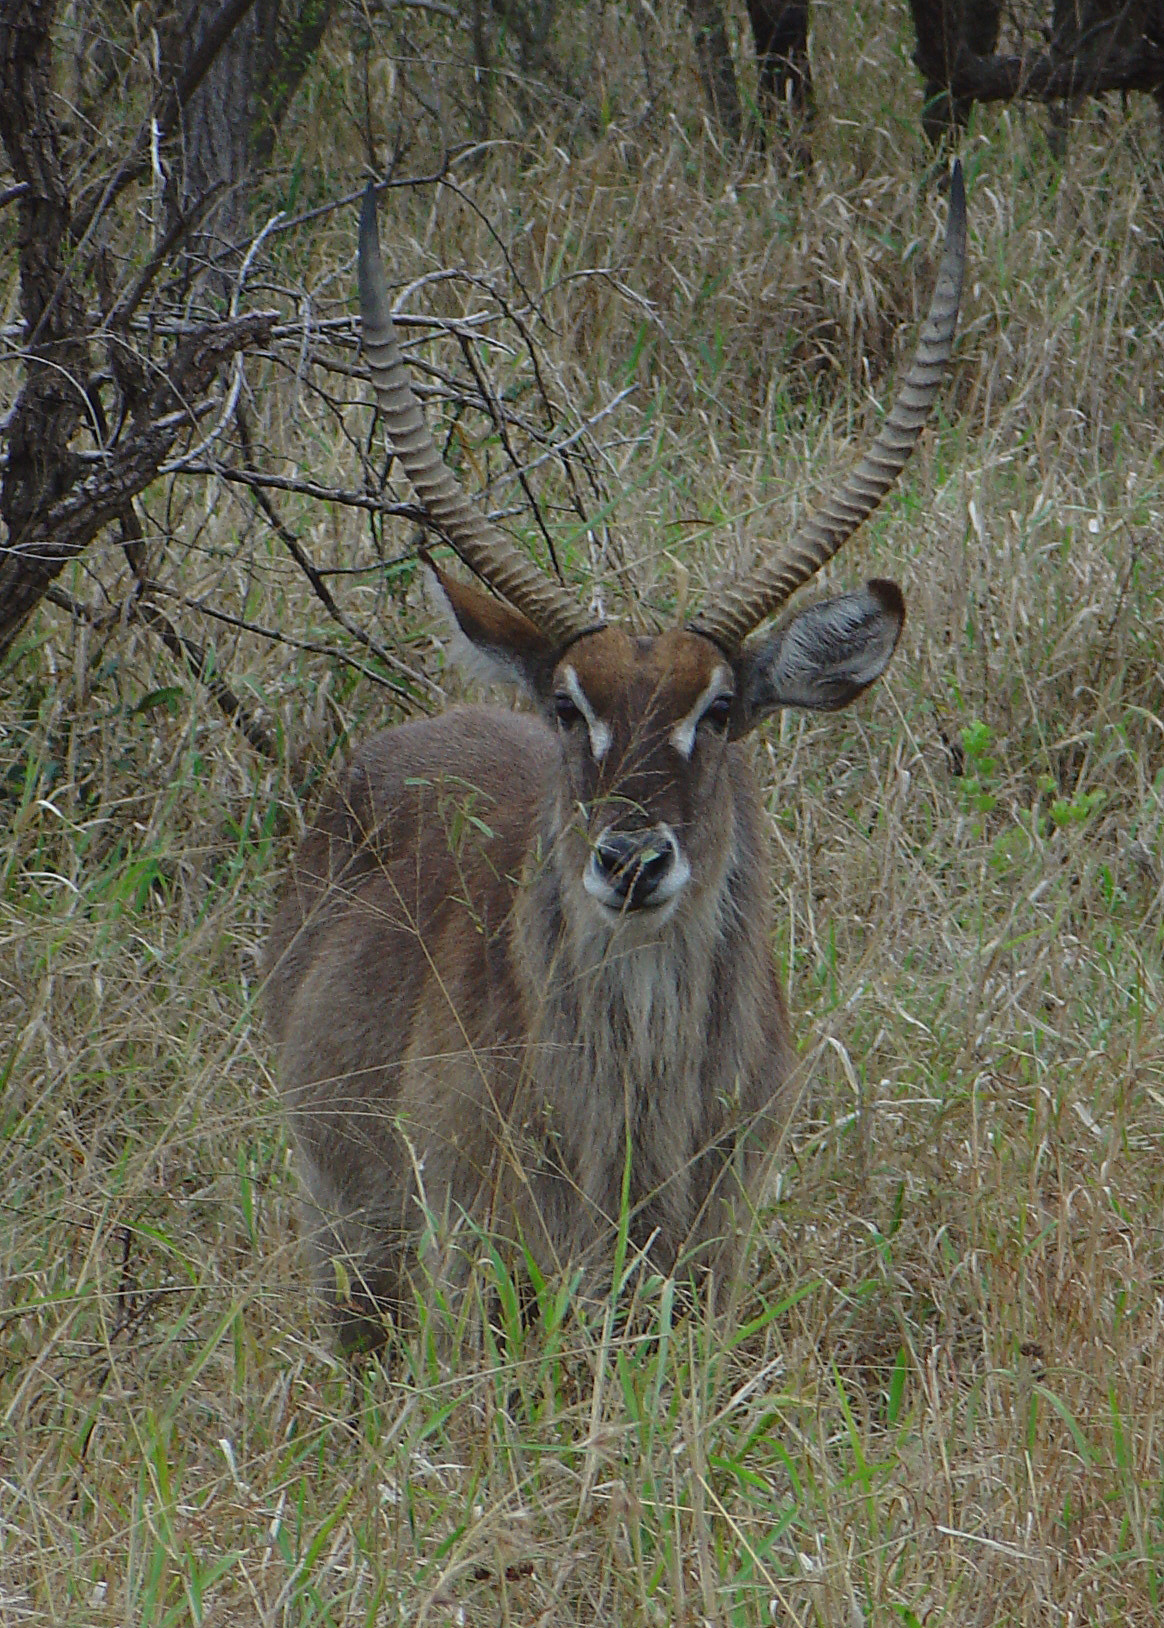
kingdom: Animalia
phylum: Chordata
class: Mammalia
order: Artiodactyla
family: Bovidae
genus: Kobus
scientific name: Kobus ellipsiprymnus
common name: Waterbuck
